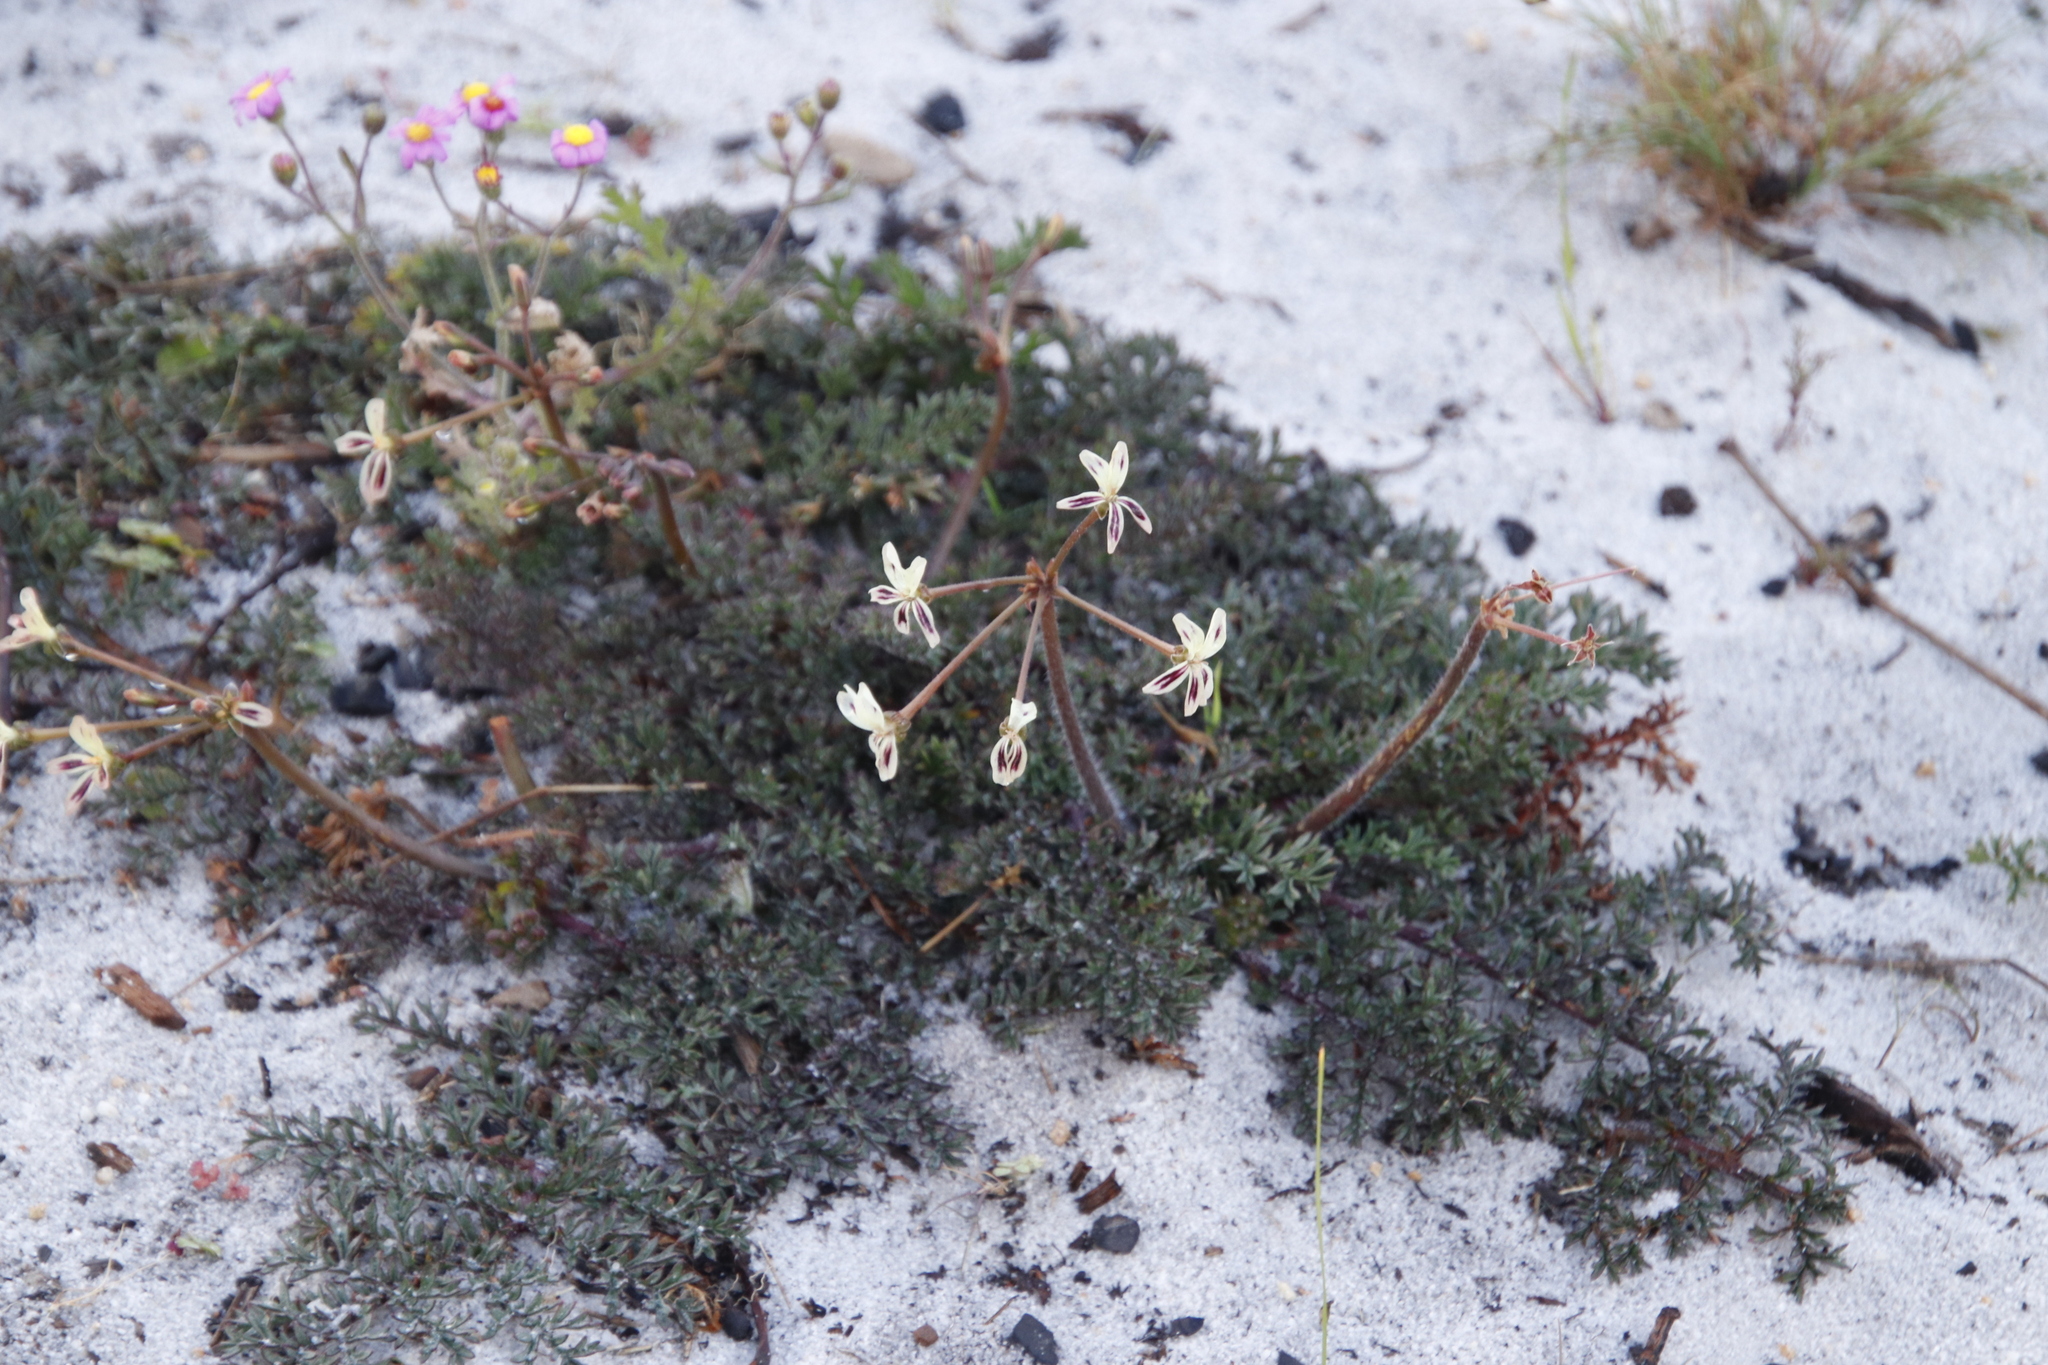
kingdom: Plantae
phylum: Tracheophyta
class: Magnoliopsida
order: Geraniales
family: Geraniaceae
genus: Pelargonium
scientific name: Pelargonium triste
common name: Night-scent pelargonium
